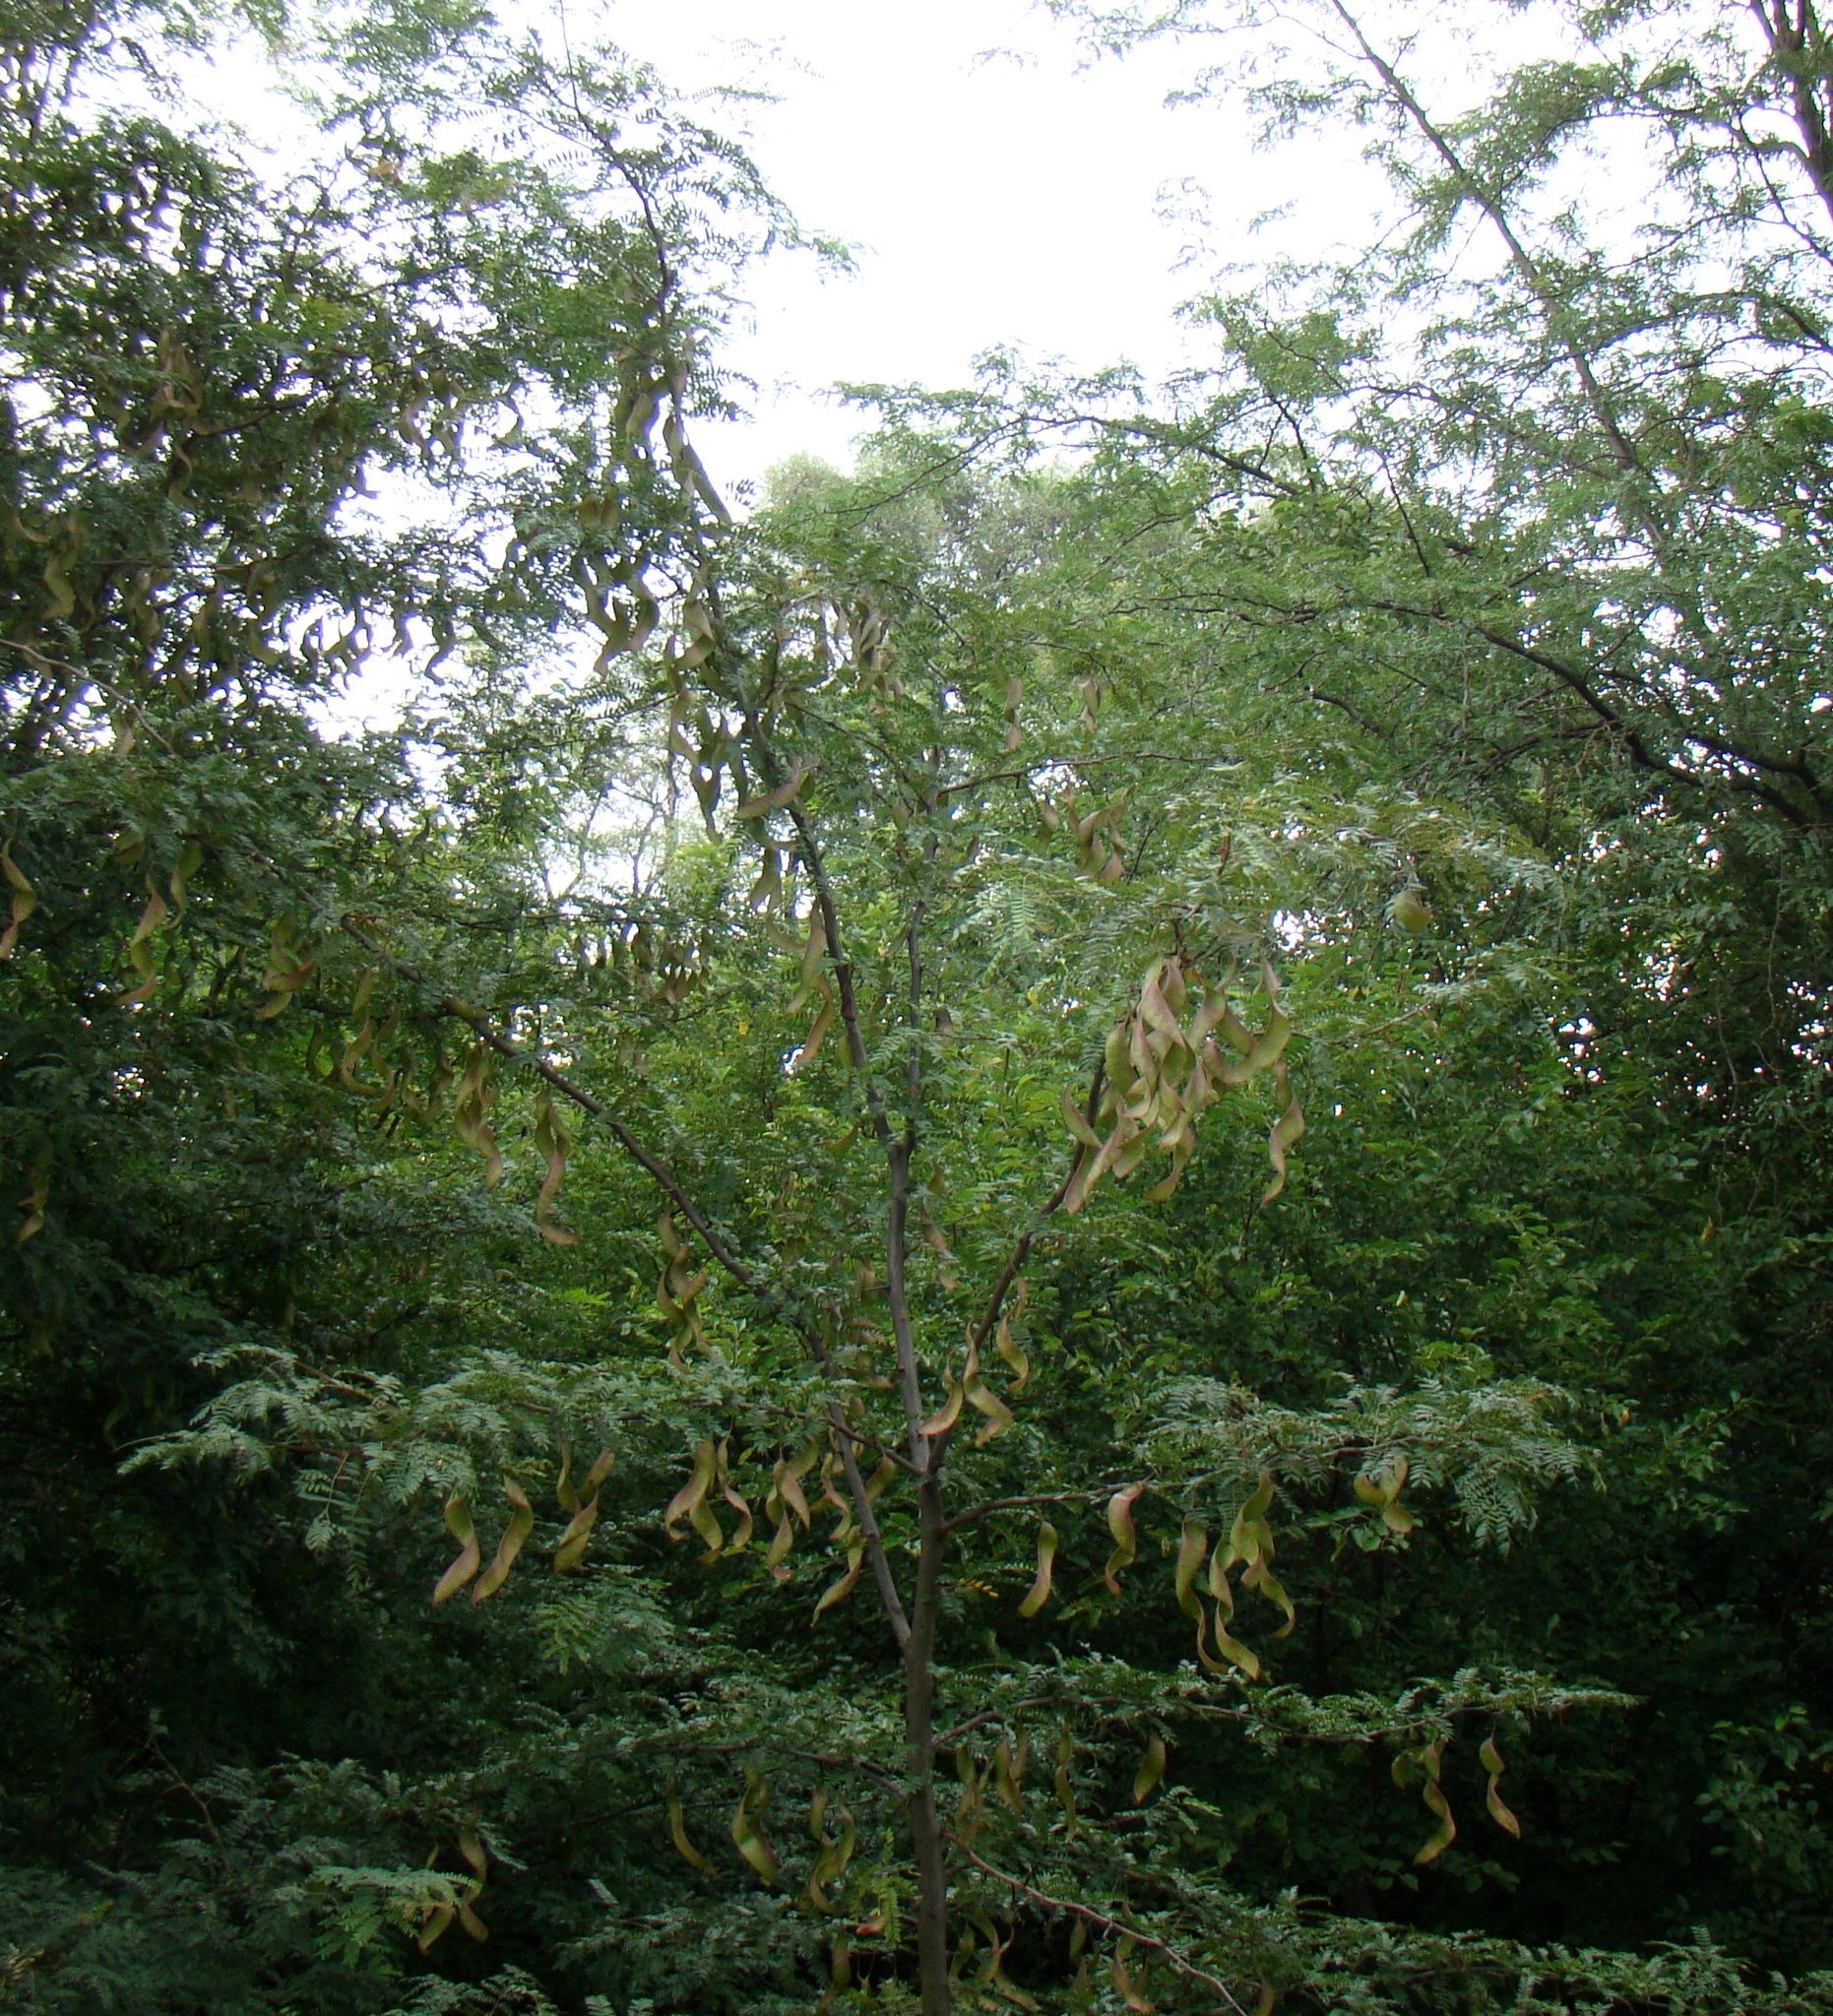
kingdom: Plantae
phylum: Tracheophyta
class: Magnoliopsida
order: Fabales
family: Fabaceae
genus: Gleditsia
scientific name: Gleditsia triacanthos
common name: Common honeylocust
